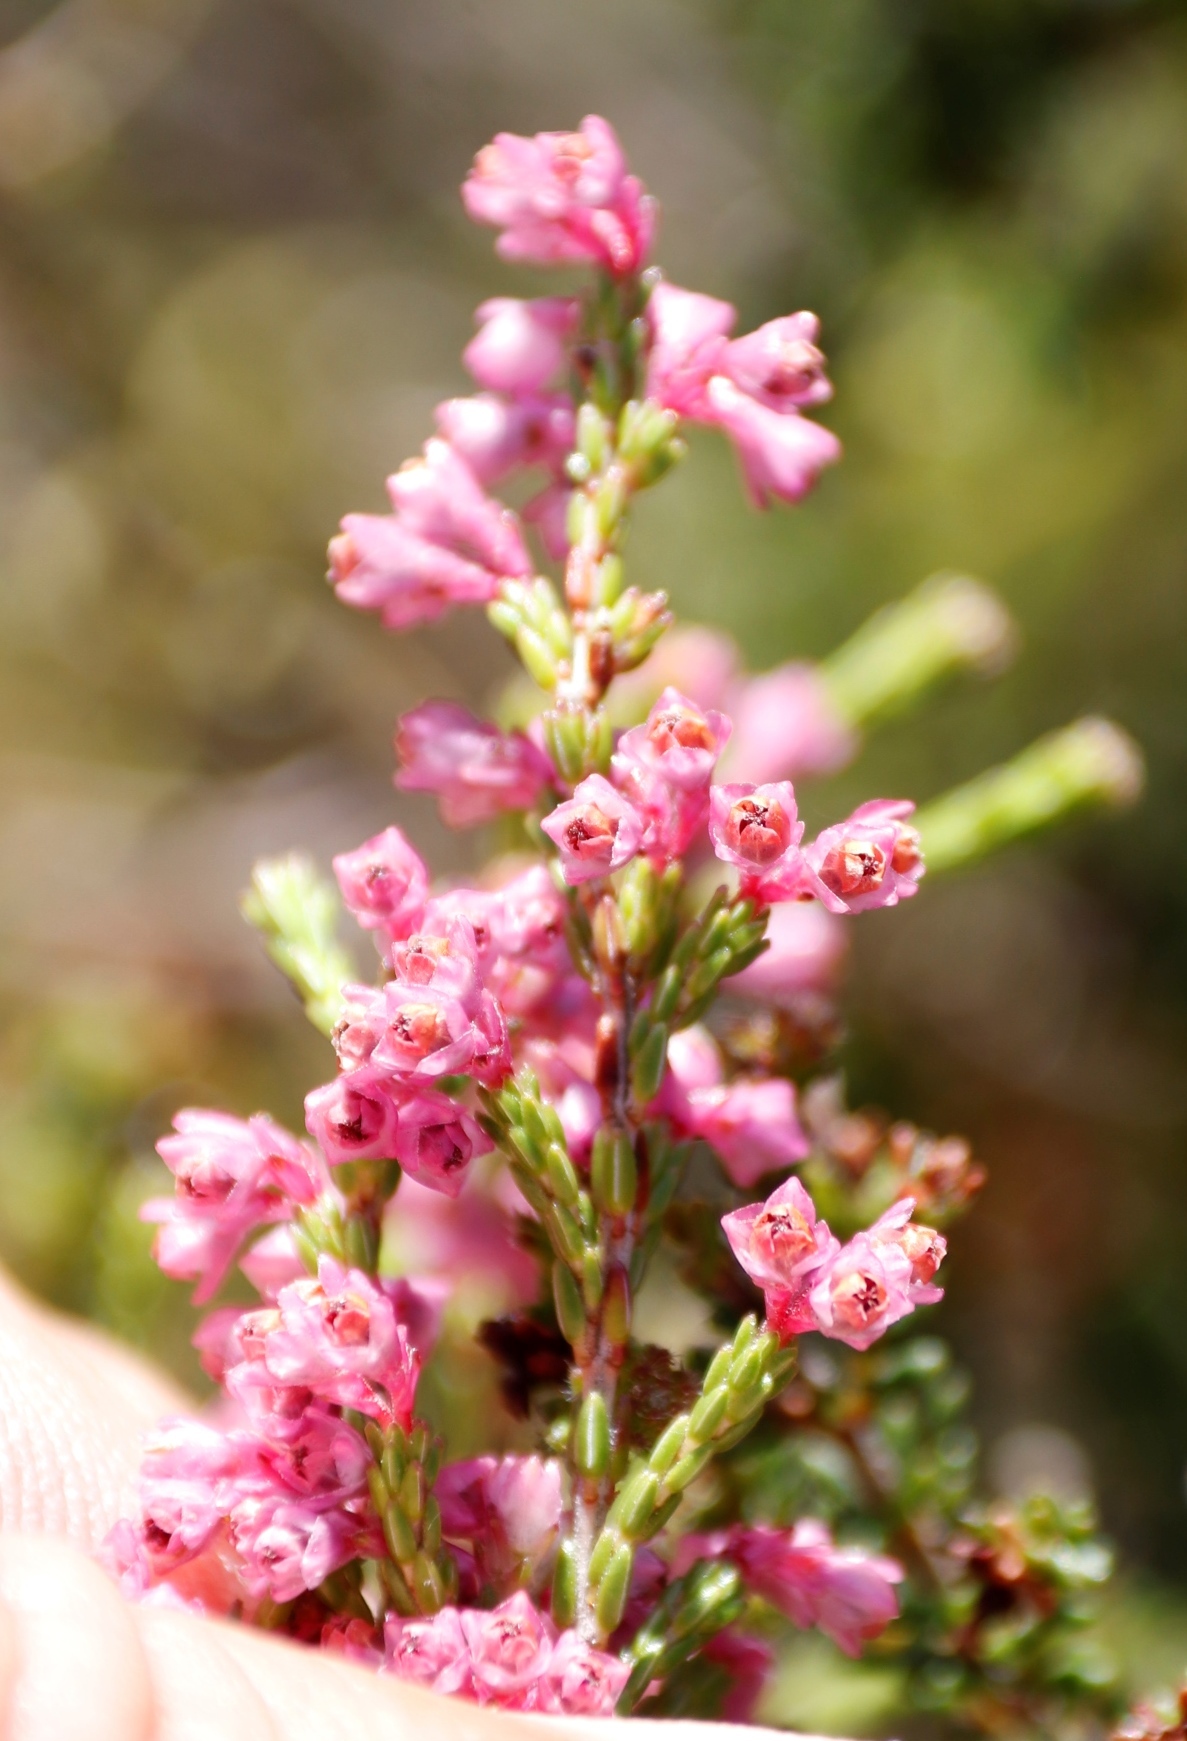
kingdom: Plantae
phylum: Tracheophyta
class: Magnoliopsida
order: Ericales
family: Ericaceae
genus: Erica
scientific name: Erica gnaphaloides
